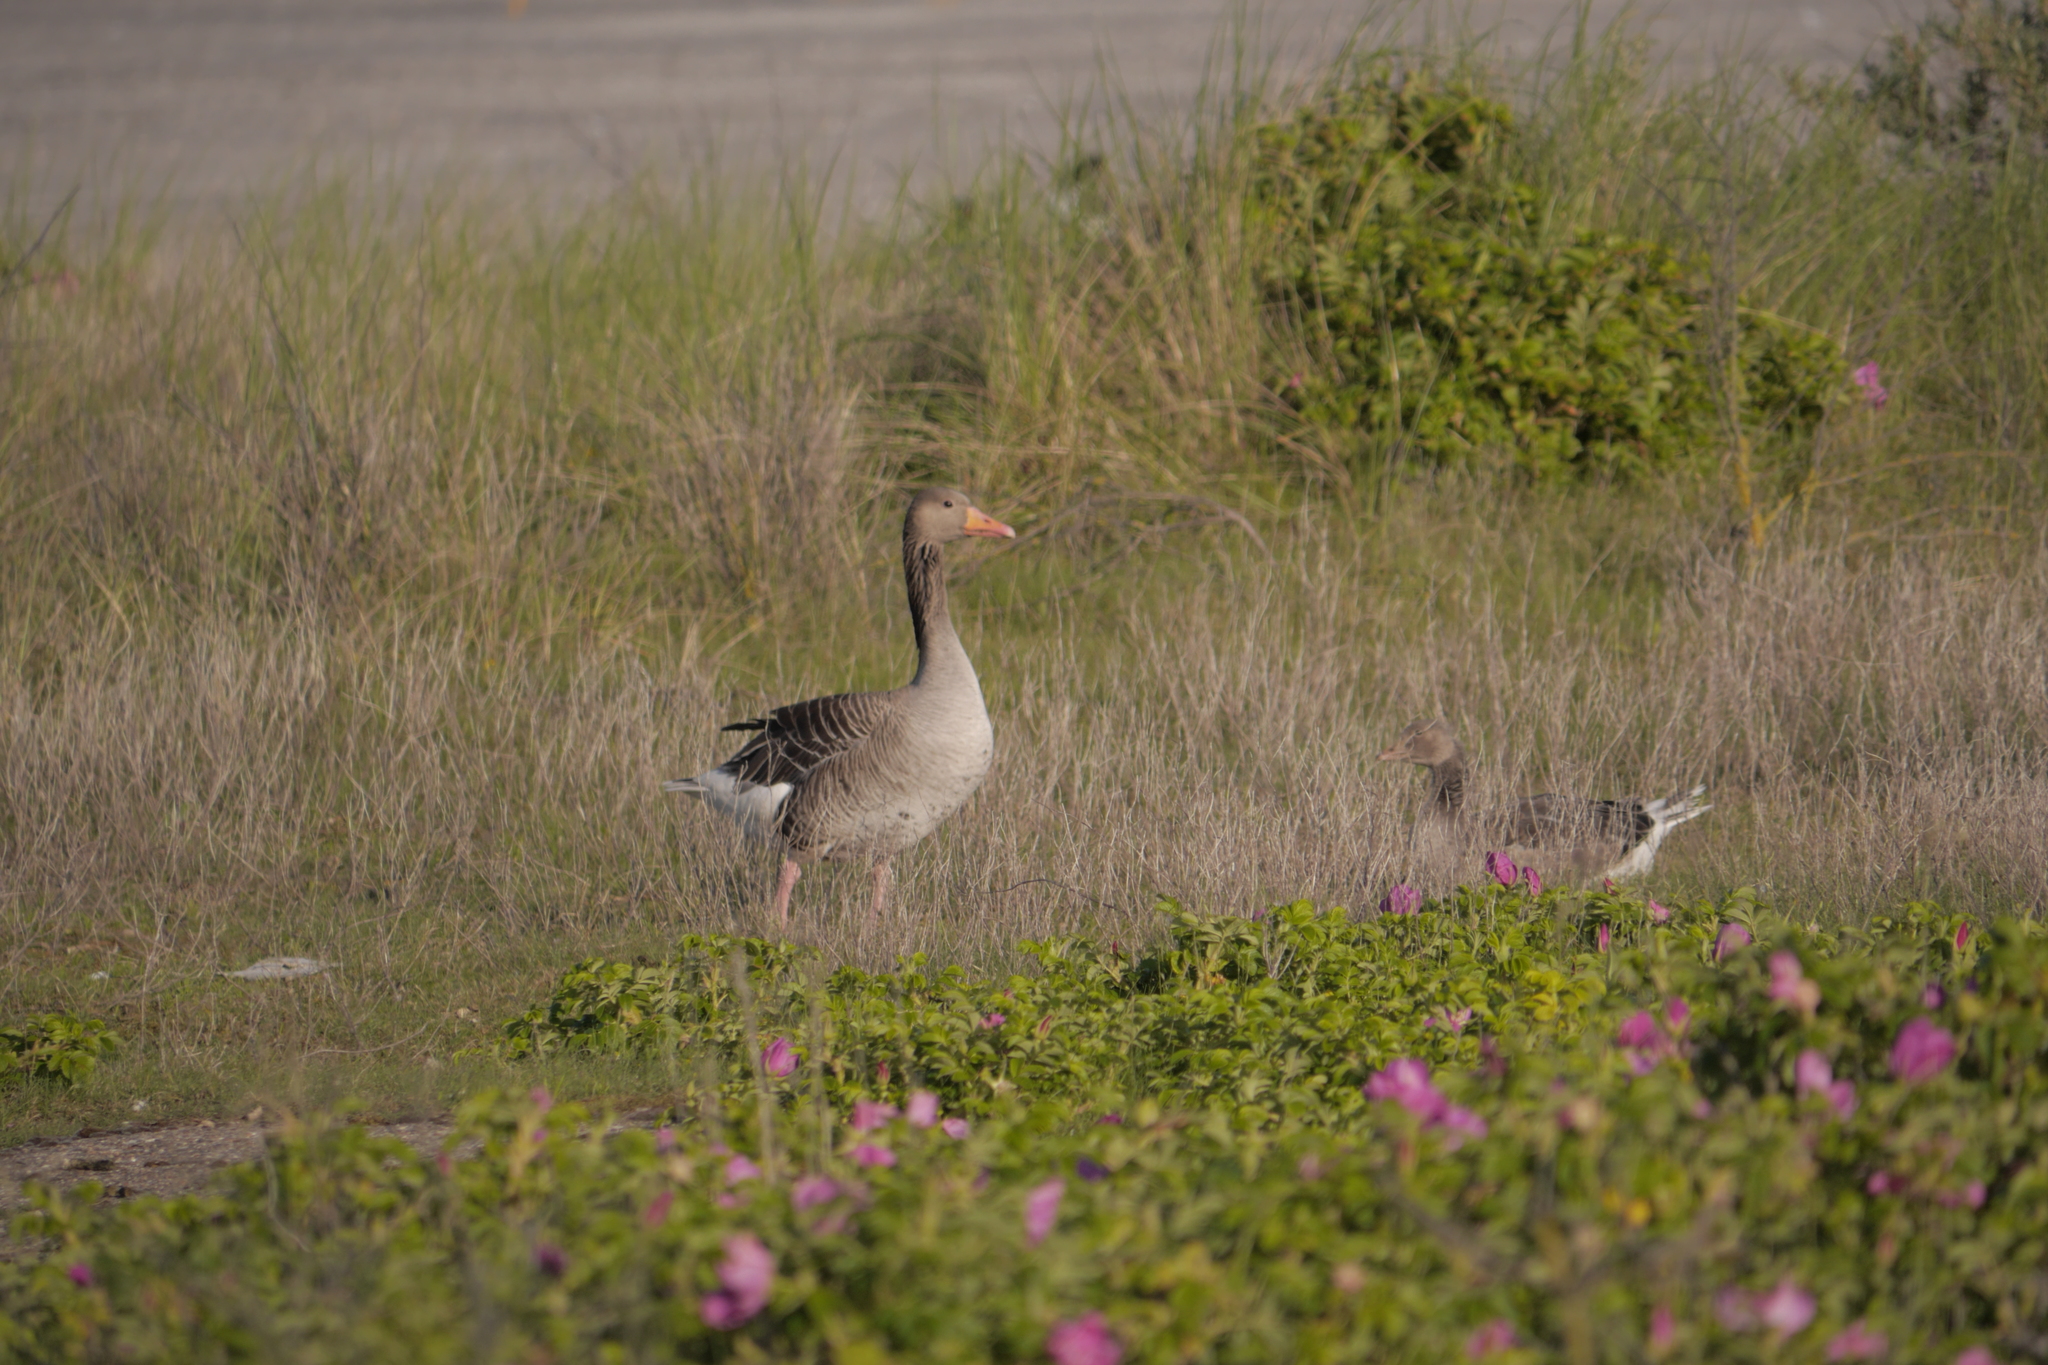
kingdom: Animalia
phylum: Chordata
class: Aves
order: Anseriformes
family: Anatidae
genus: Anser
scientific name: Anser anser
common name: Greylag goose
